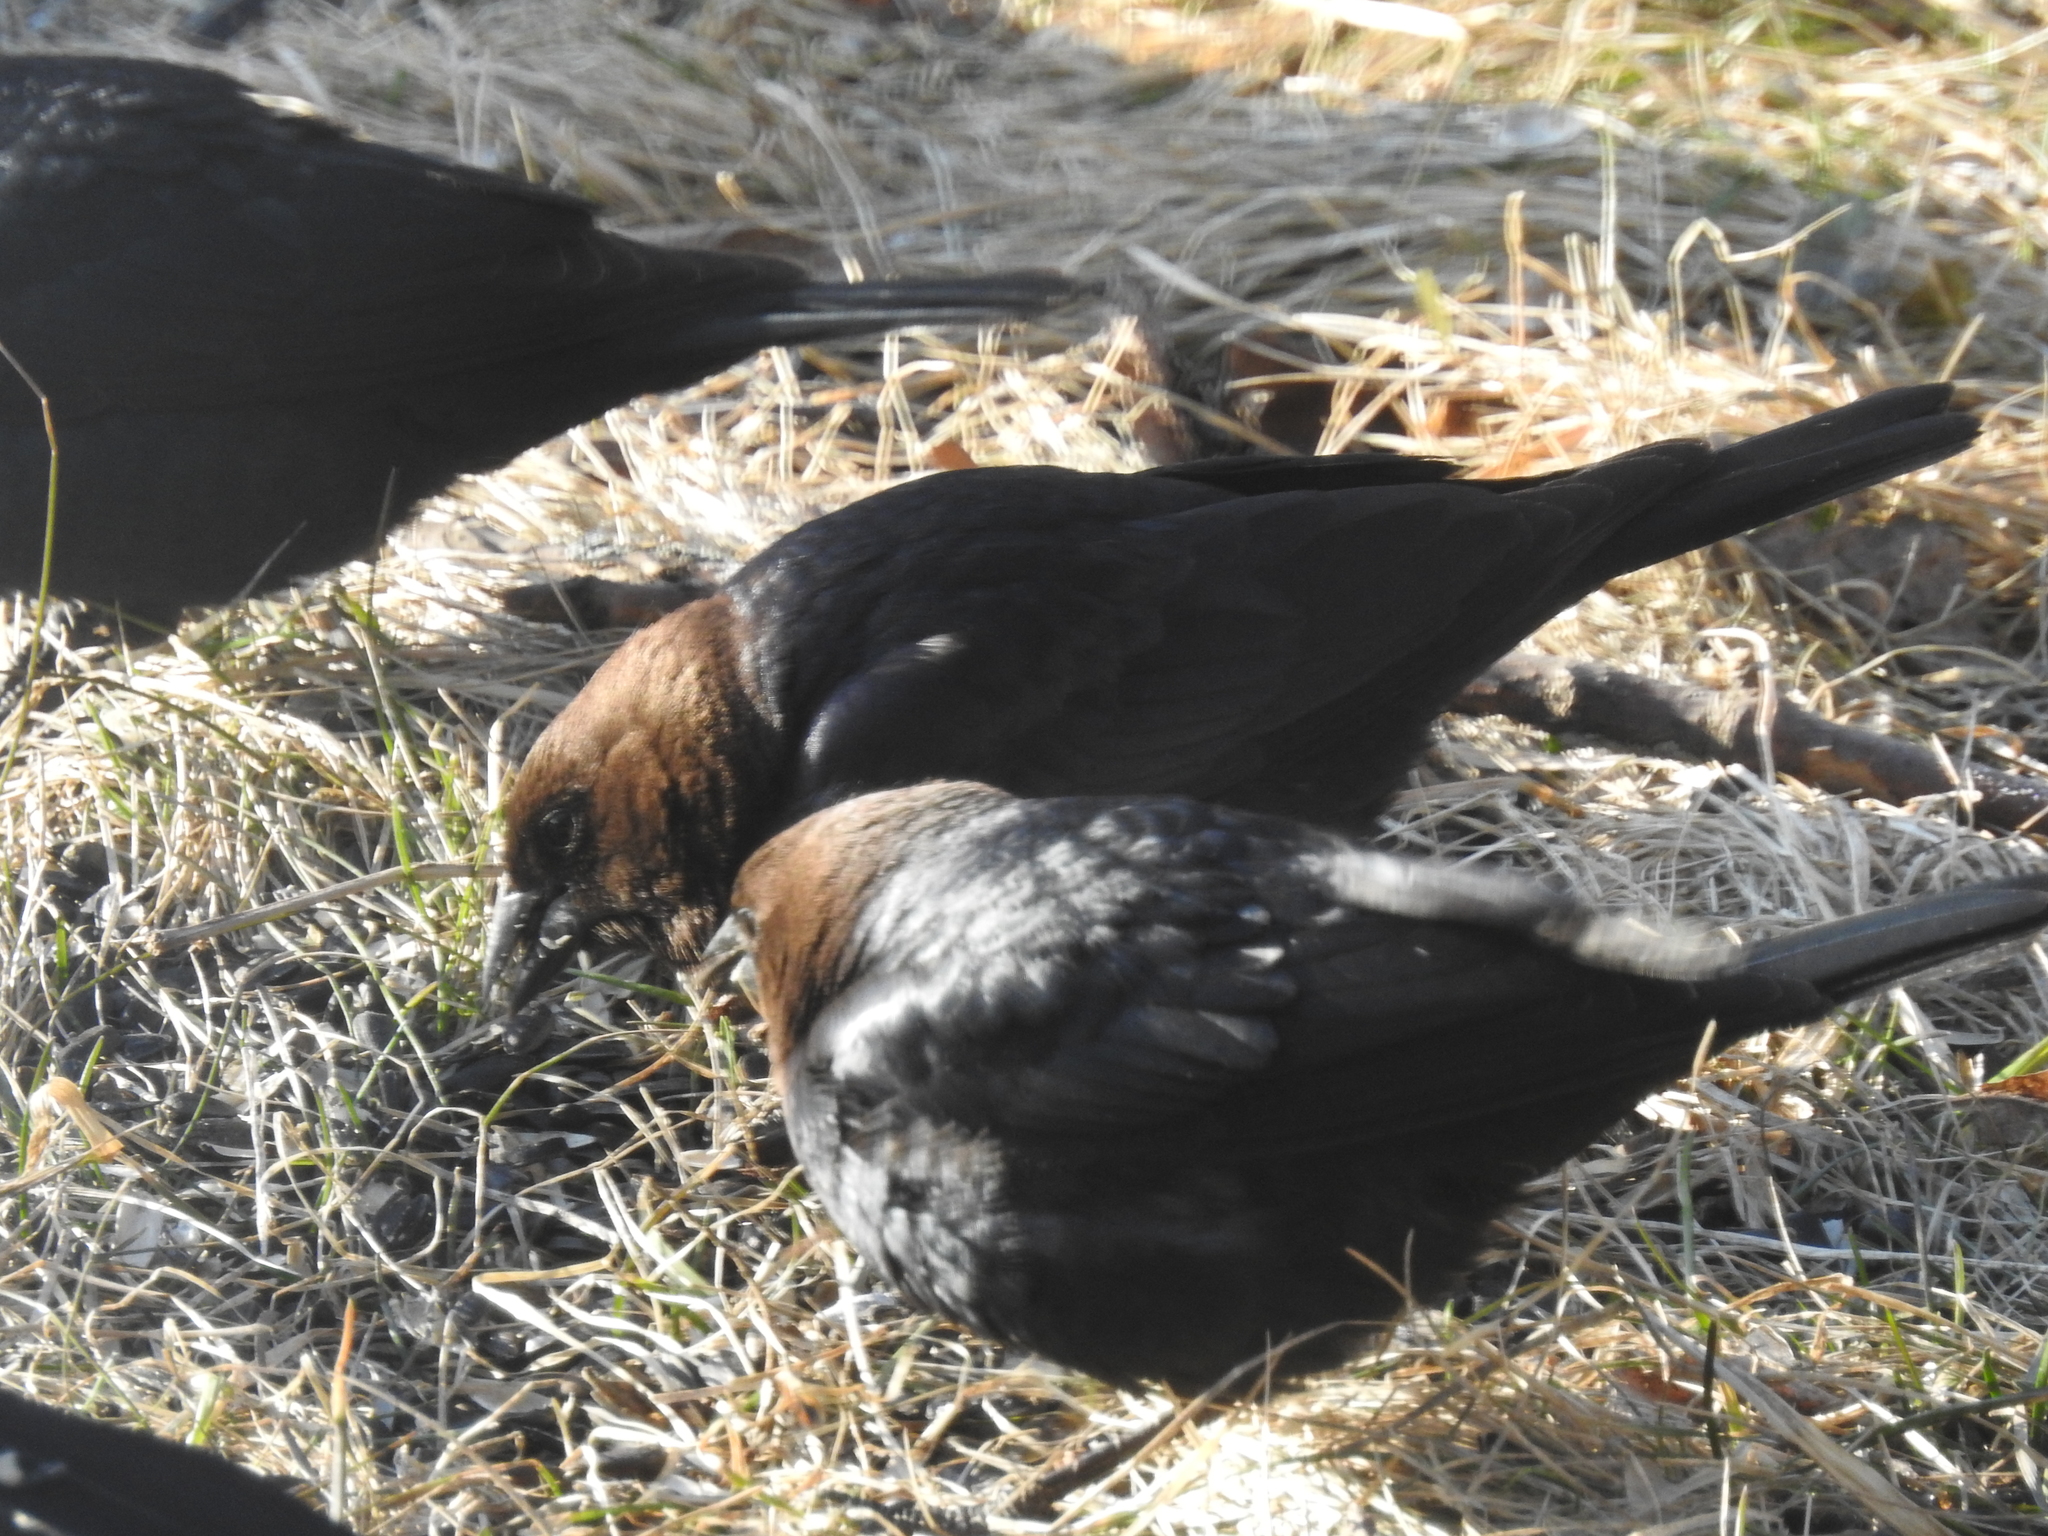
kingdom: Animalia
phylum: Chordata
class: Aves
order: Passeriformes
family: Icteridae
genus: Molothrus
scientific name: Molothrus ater
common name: Brown-headed cowbird
